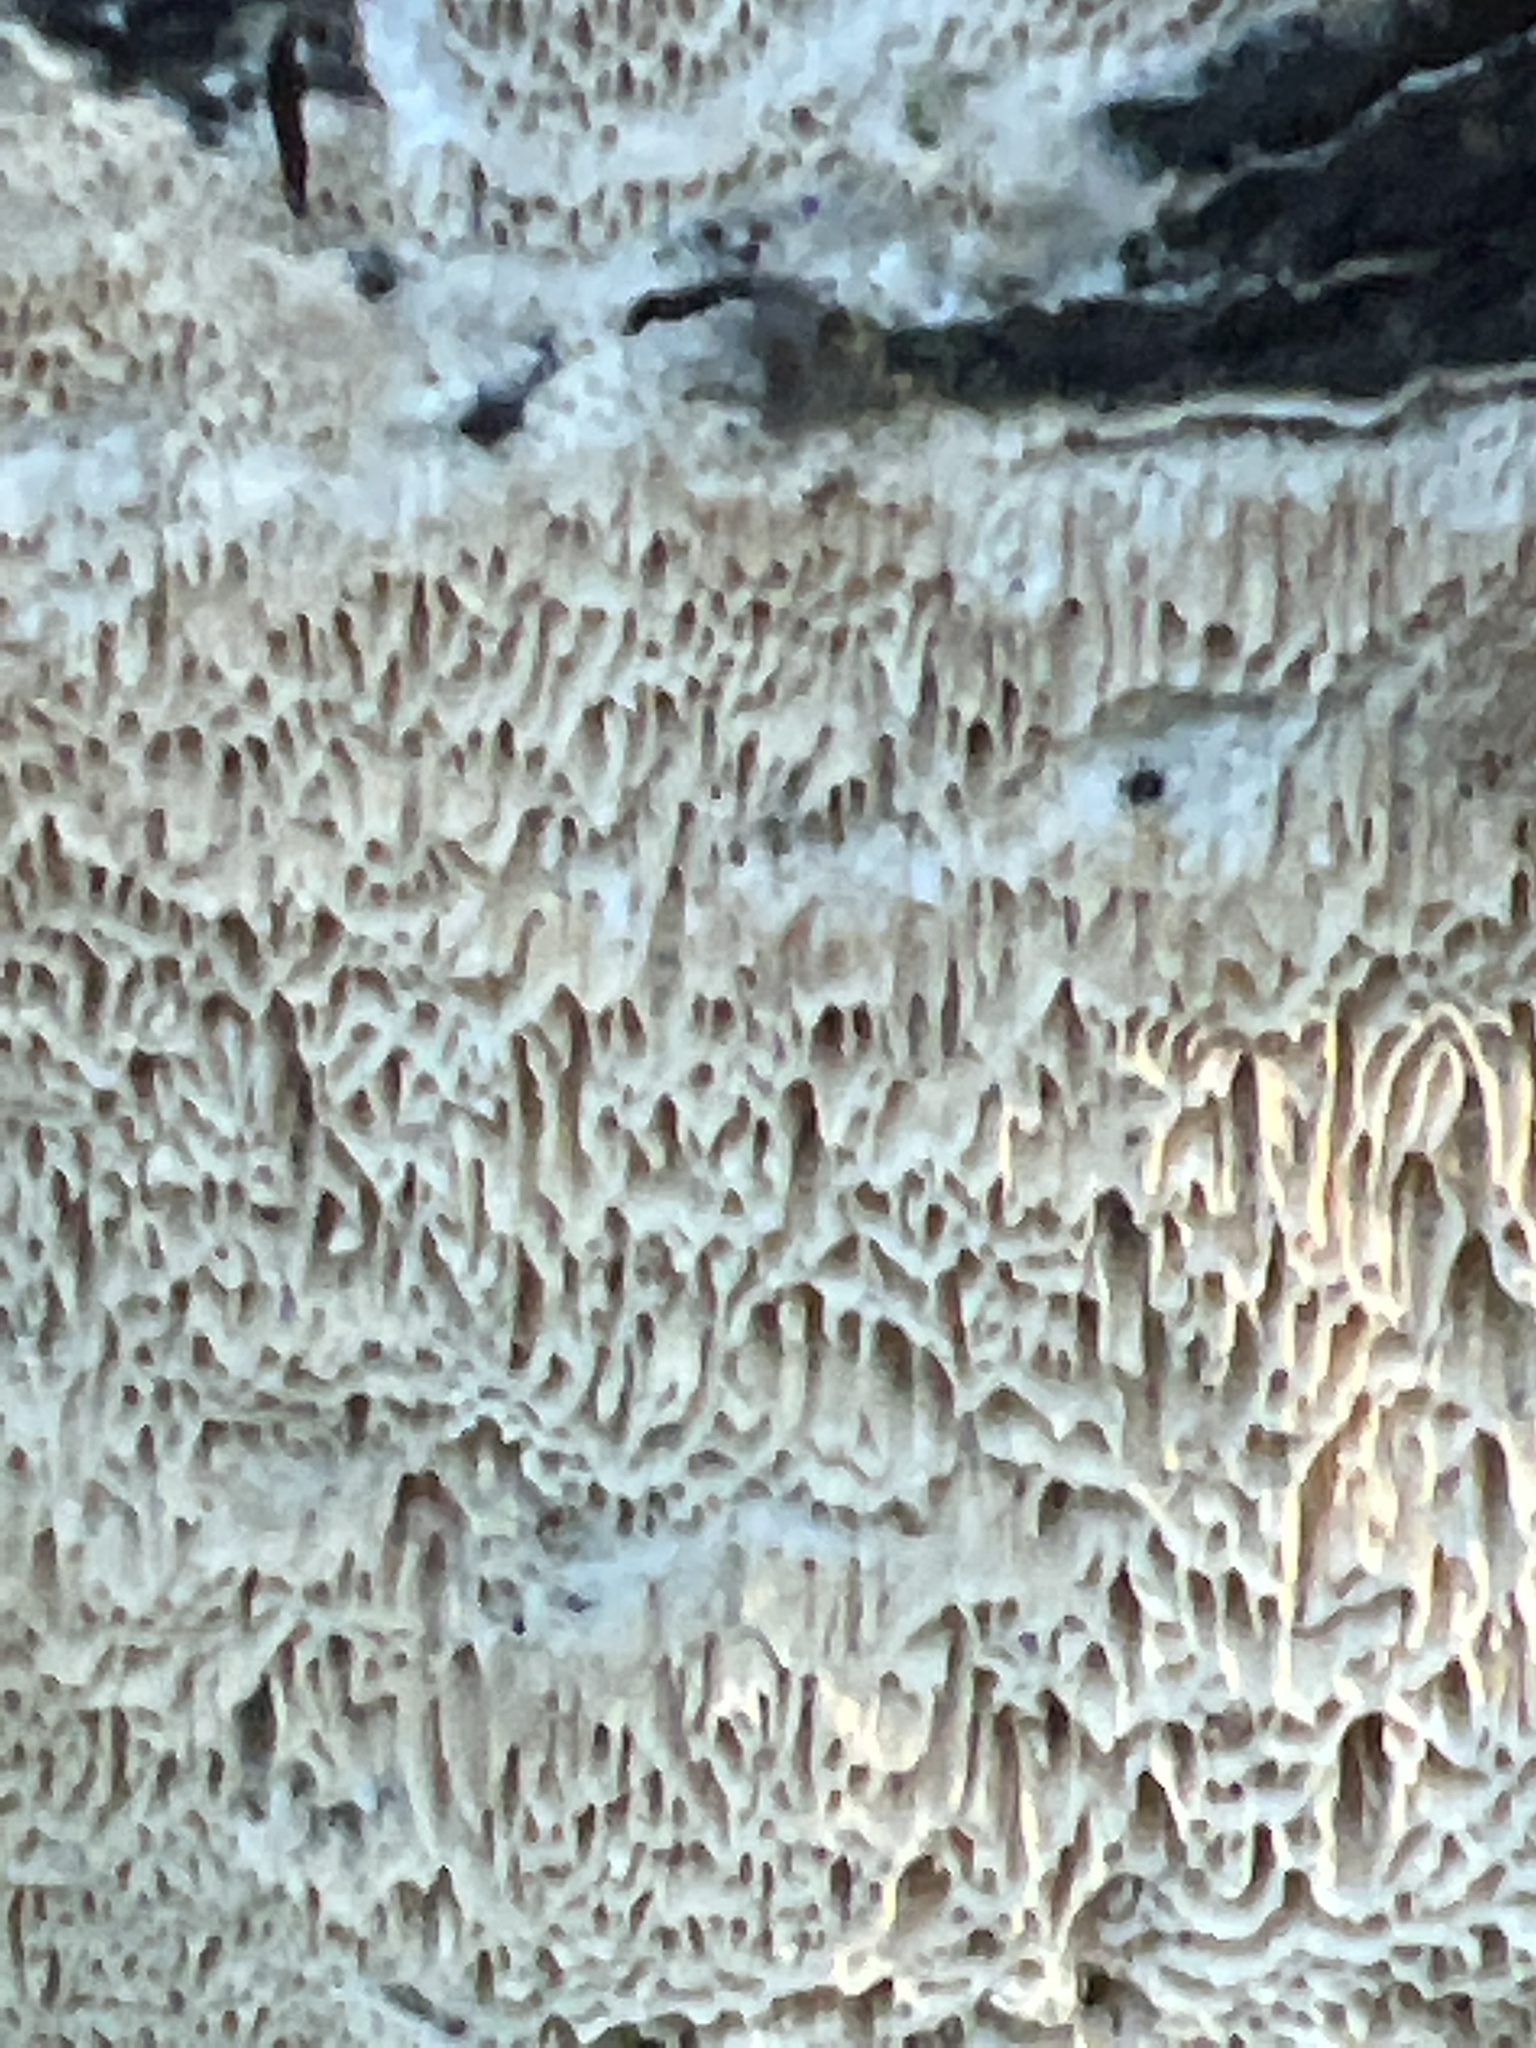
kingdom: Fungi
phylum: Basidiomycota
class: Agaricomycetes
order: Hymenochaetales
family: Oxyporaceae
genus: Oxyporus
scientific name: Oxyporus corticola
